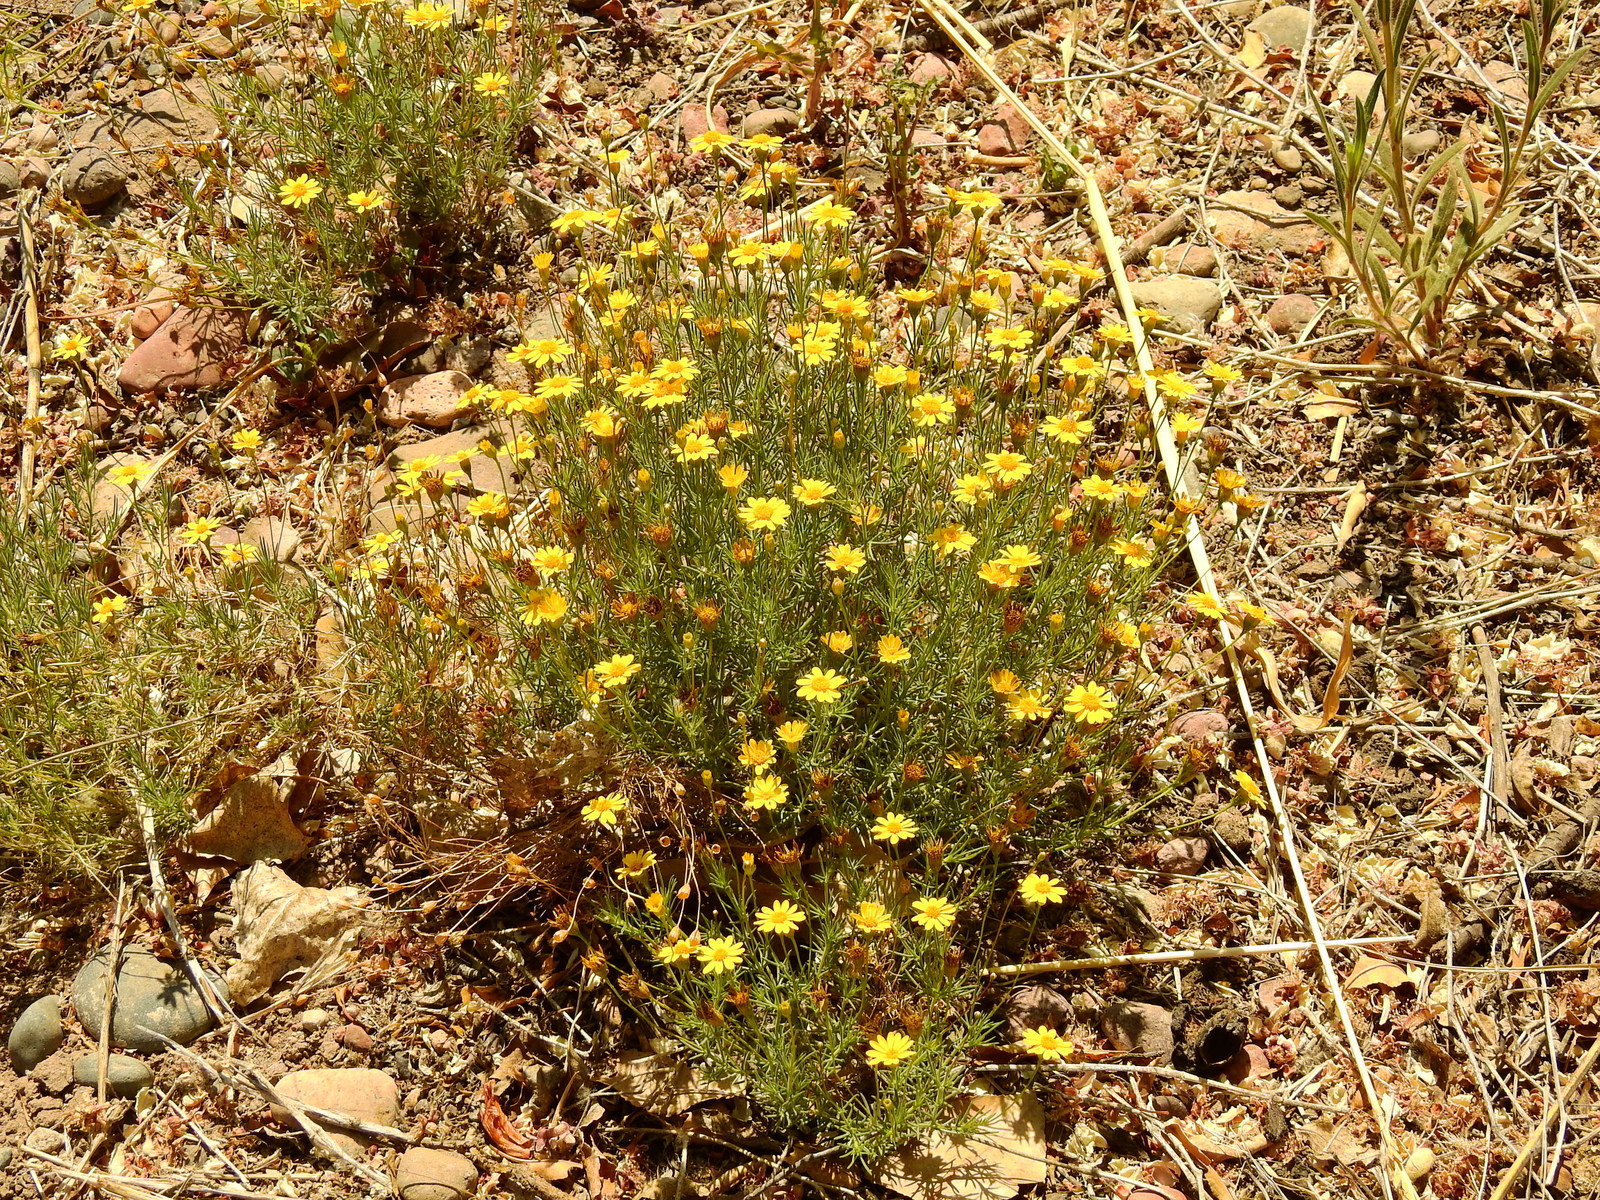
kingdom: Plantae
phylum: Tracheophyta
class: Magnoliopsida
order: Asterales
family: Asteraceae
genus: Thymophylla
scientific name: Thymophylla pentachaeta
